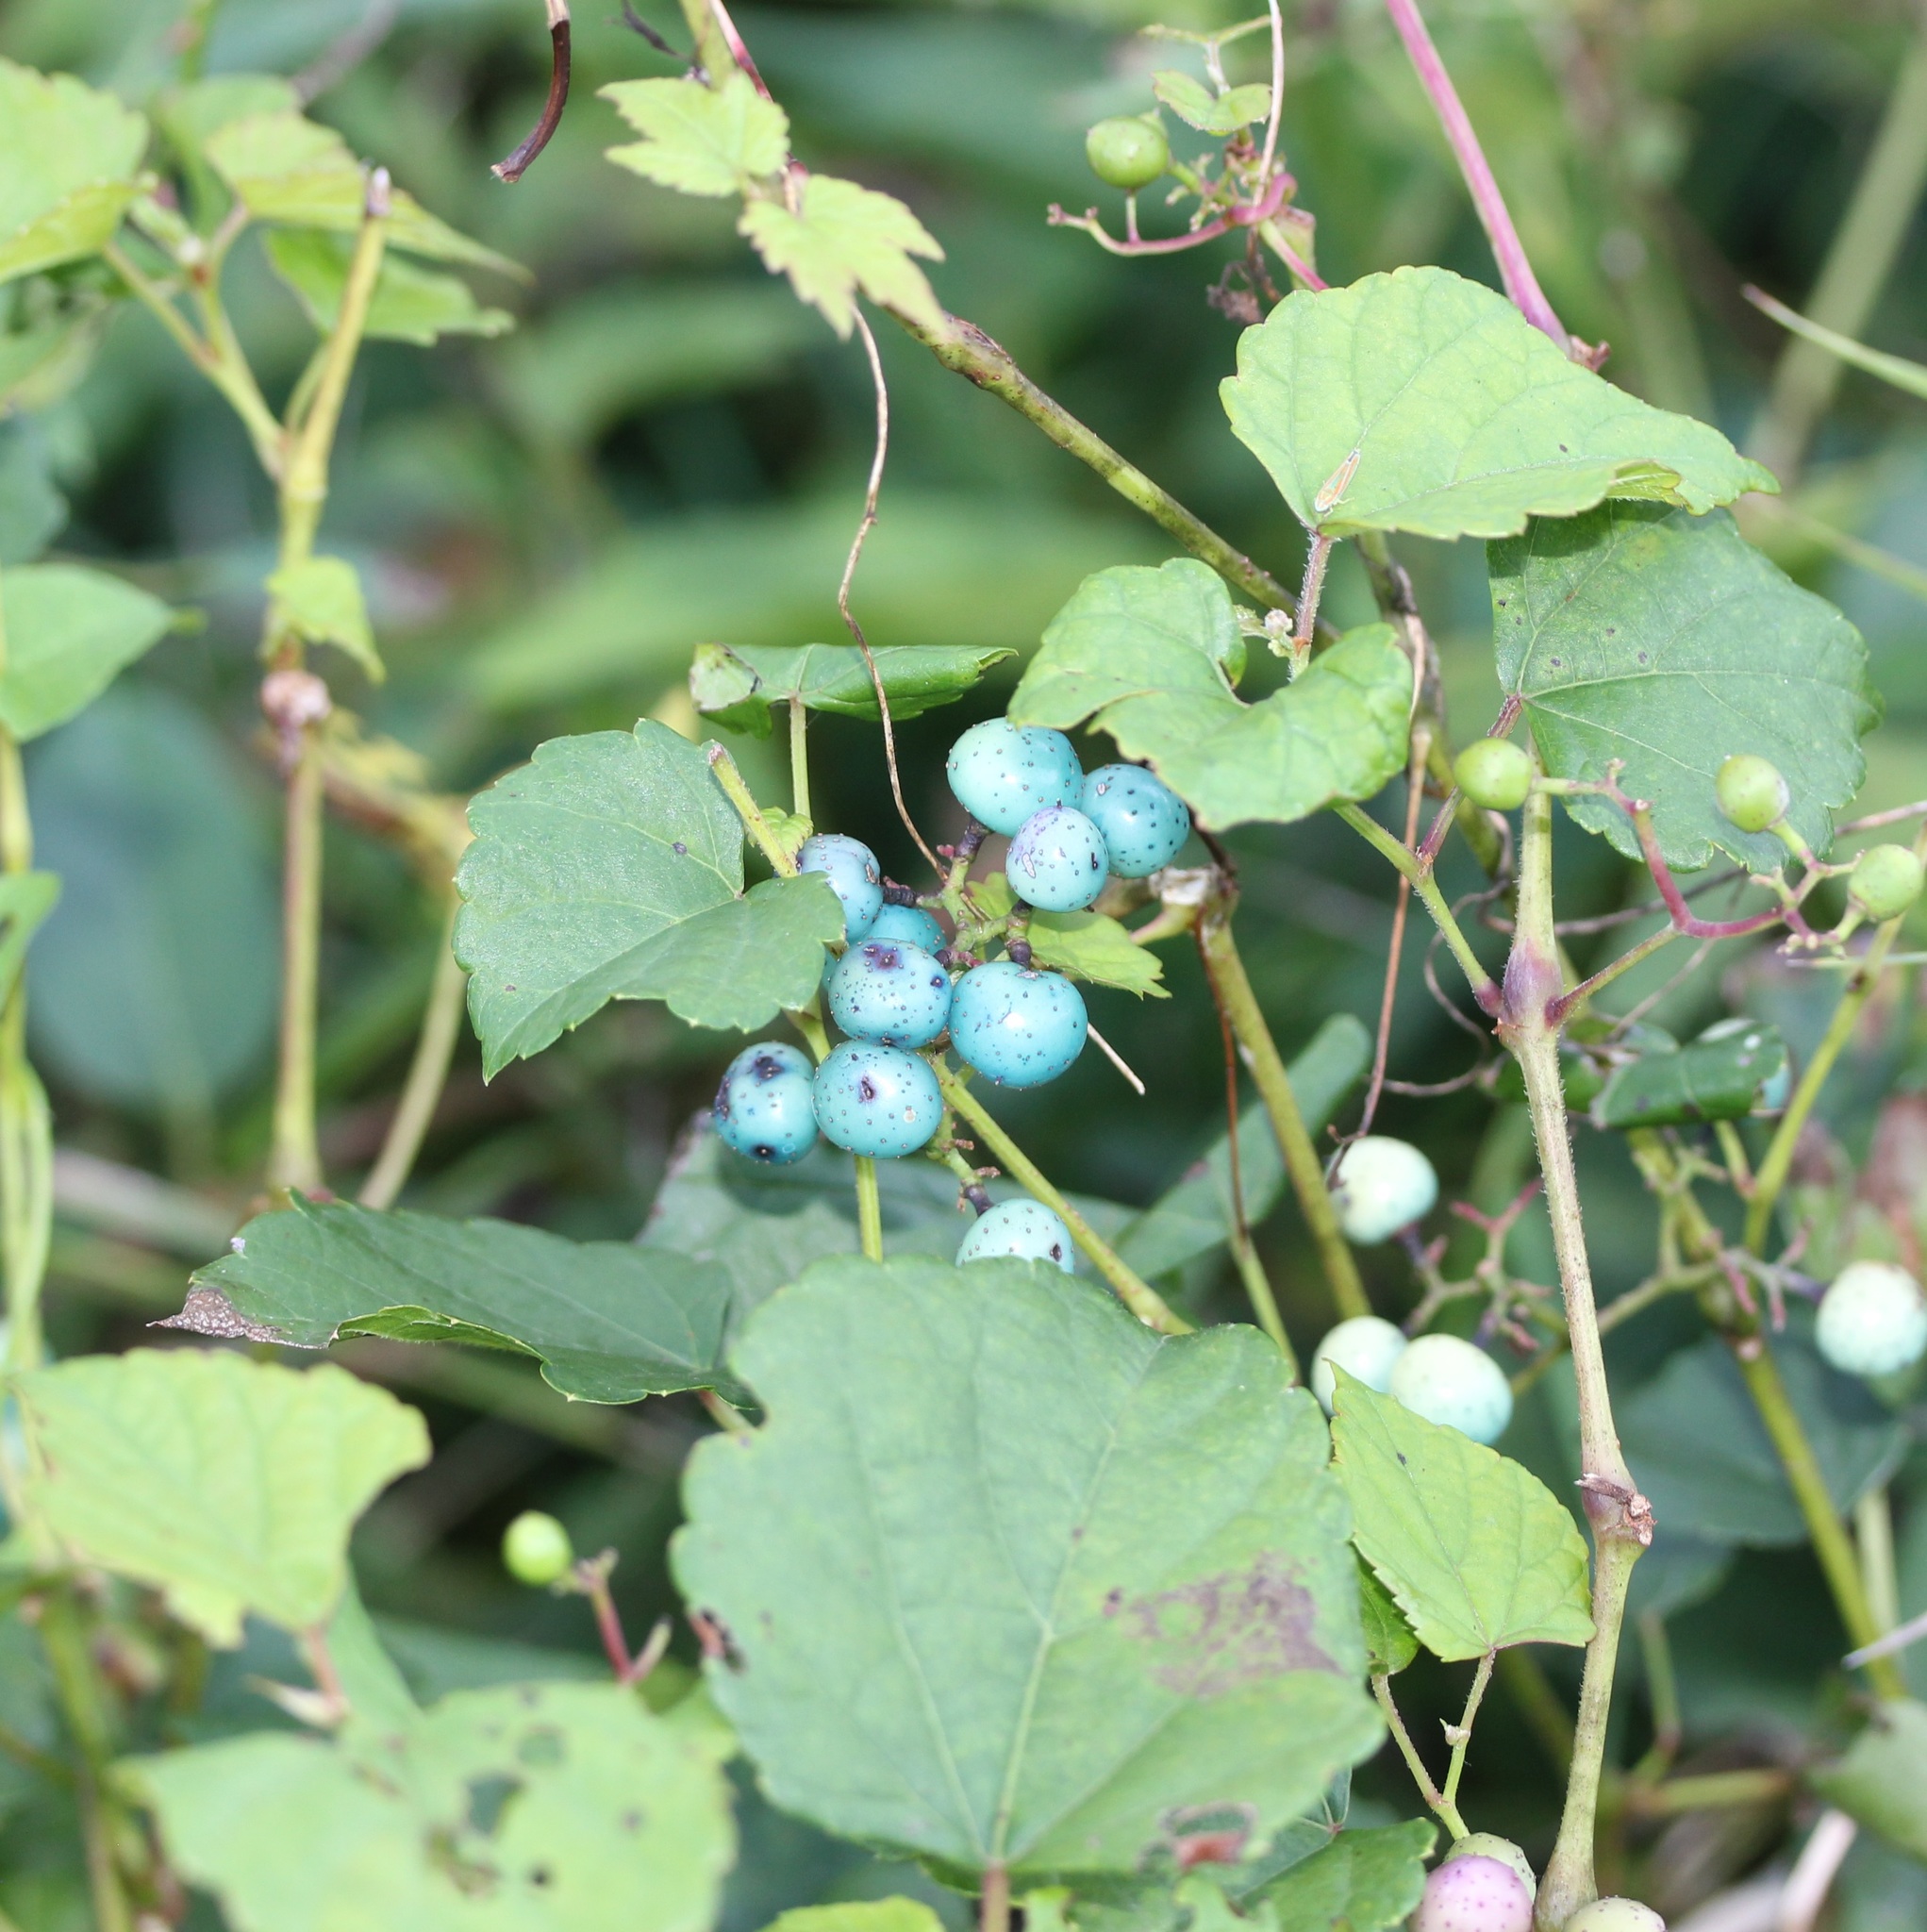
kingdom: Plantae
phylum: Tracheophyta
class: Magnoliopsida
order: Vitales
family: Vitaceae
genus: Ampelopsis
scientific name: Ampelopsis glandulosa
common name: Amur peppervine
